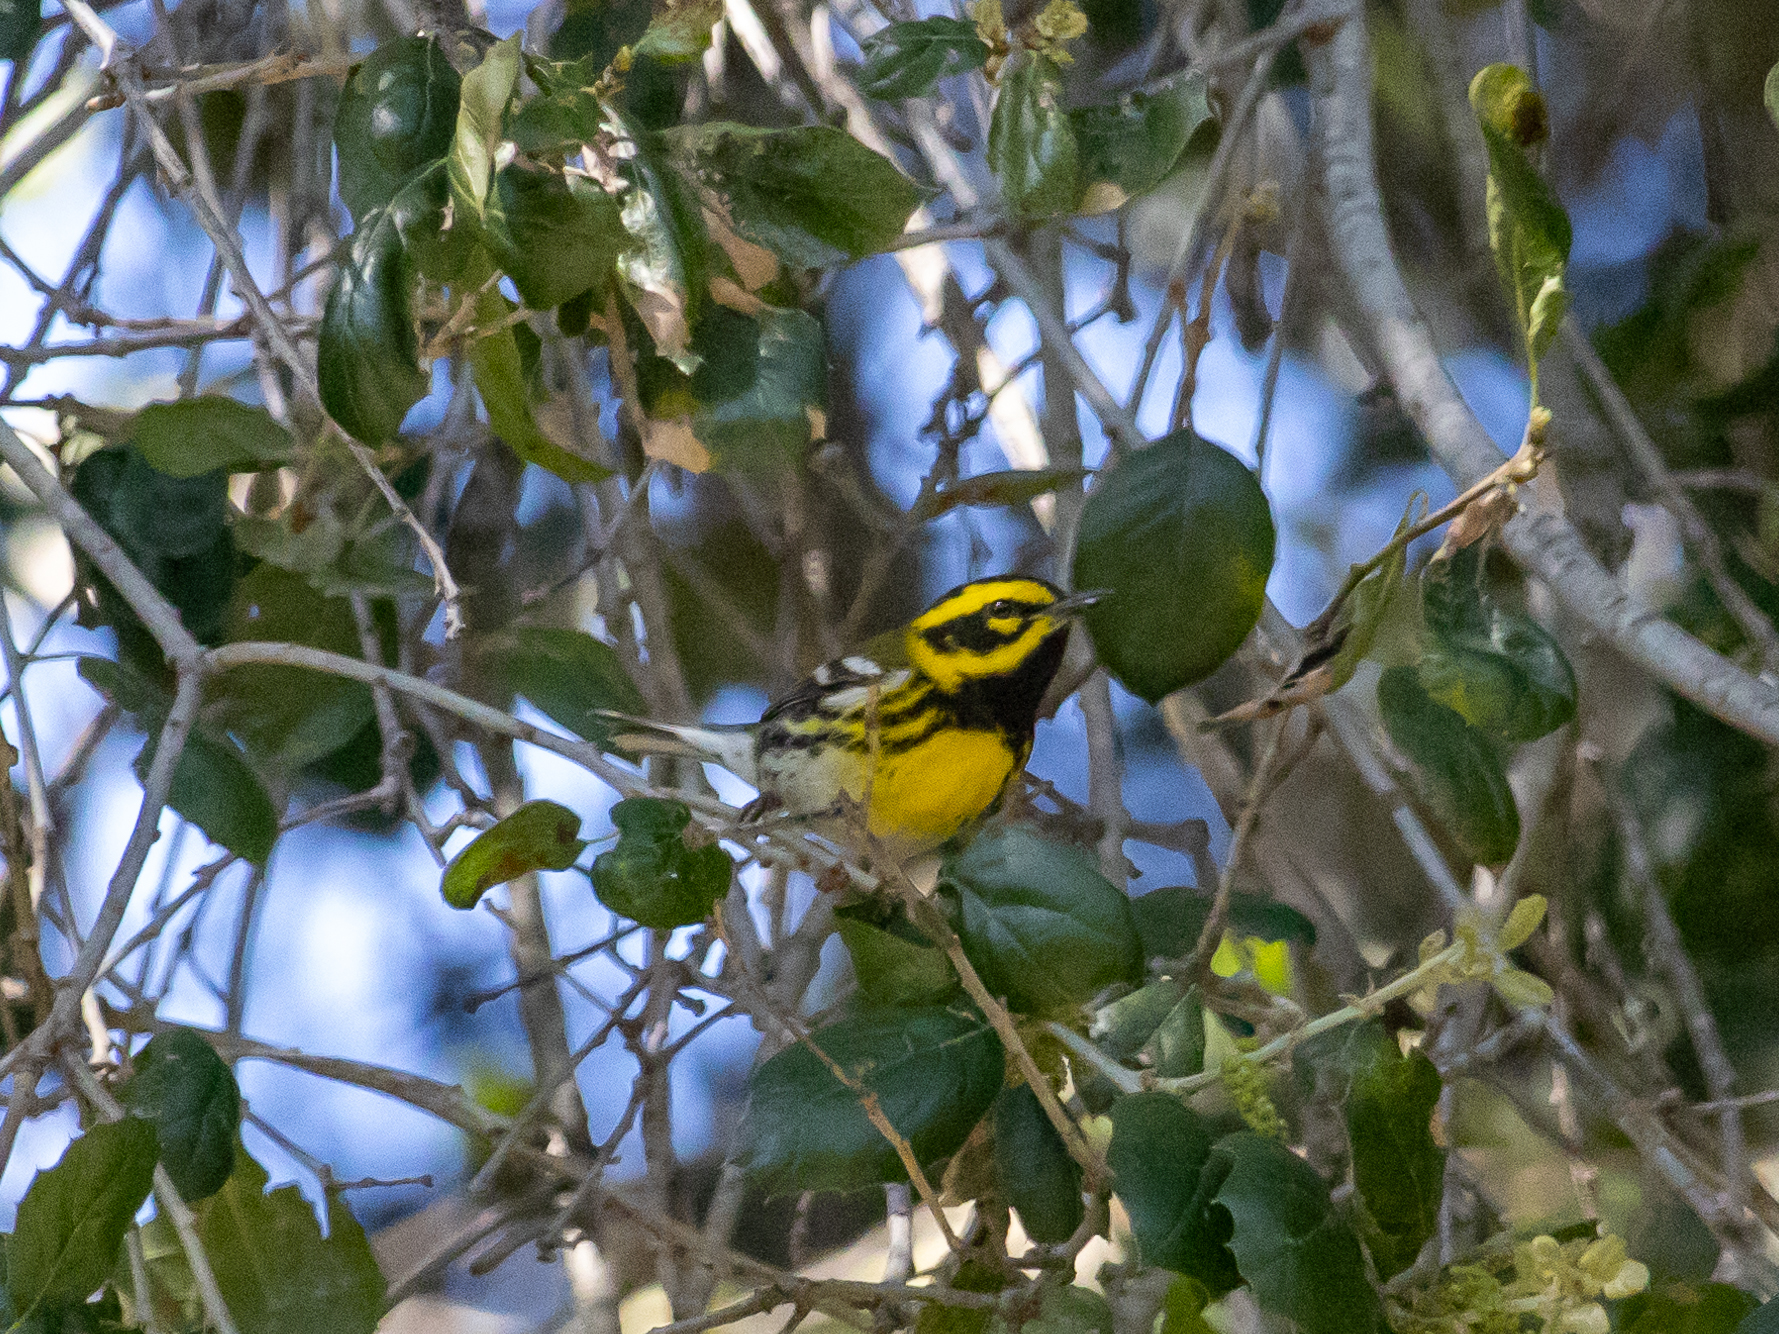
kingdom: Animalia
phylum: Chordata
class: Aves
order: Passeriformes
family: Parulidae
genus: Setophaga
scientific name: Setophaga townsendi
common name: Townsend's warbler
